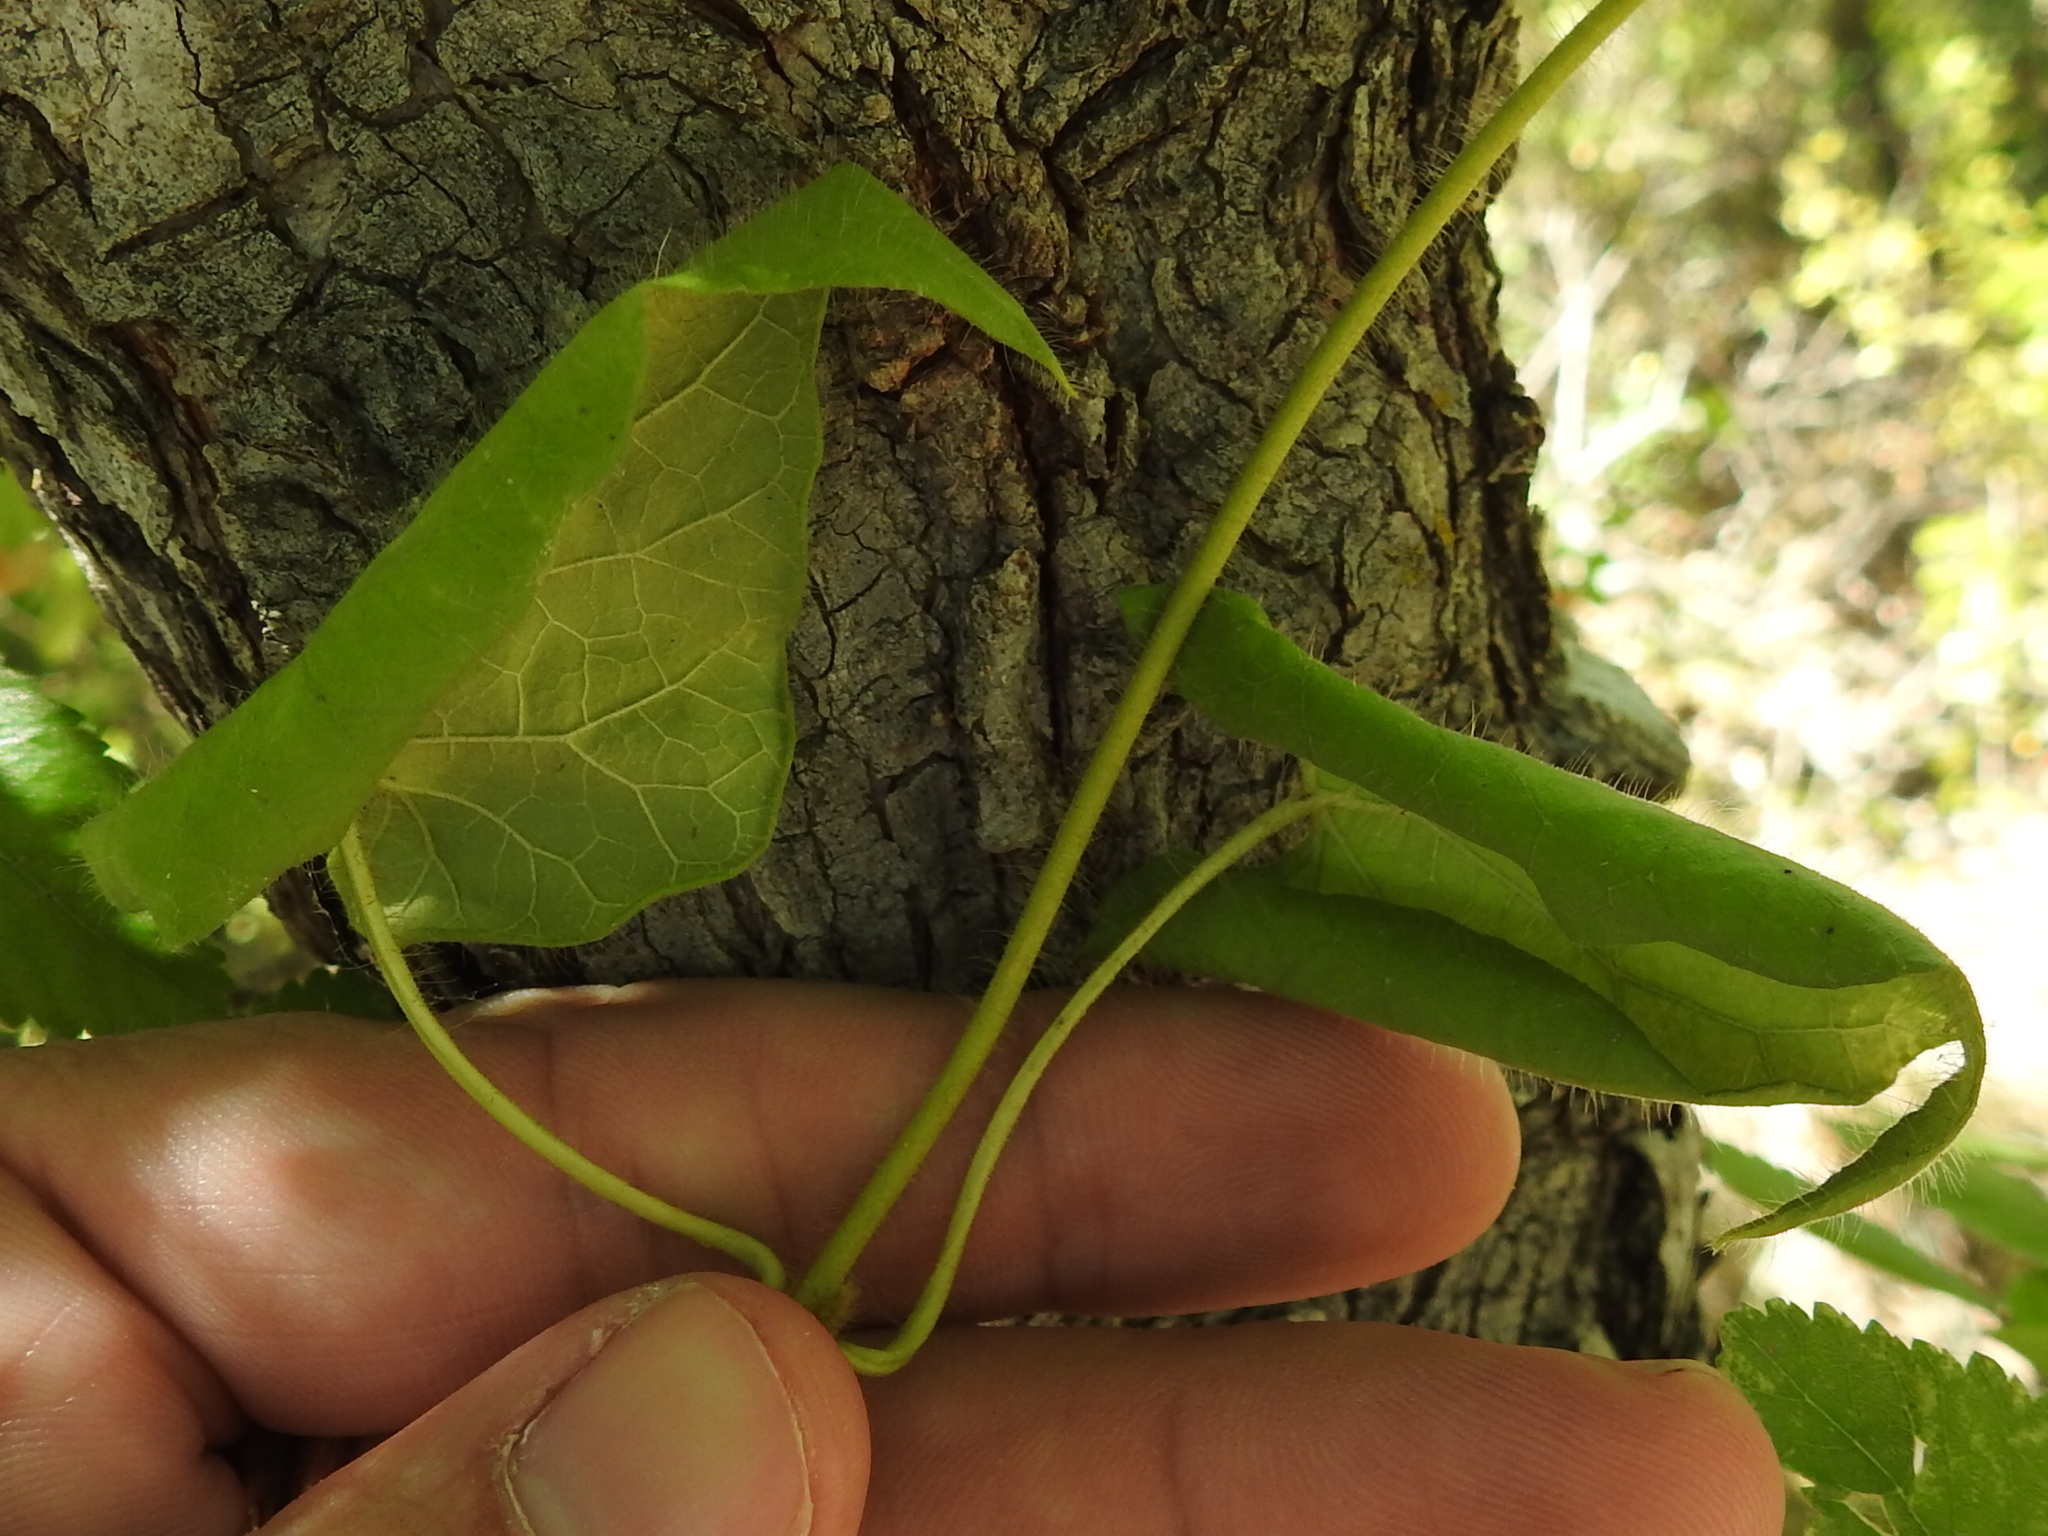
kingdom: Plantae
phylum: Tracheophyta
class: Magnoliopsida
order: Gentianales
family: Apocynaceae
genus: Dictyanthus
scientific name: Dictyanthus reticulatus
